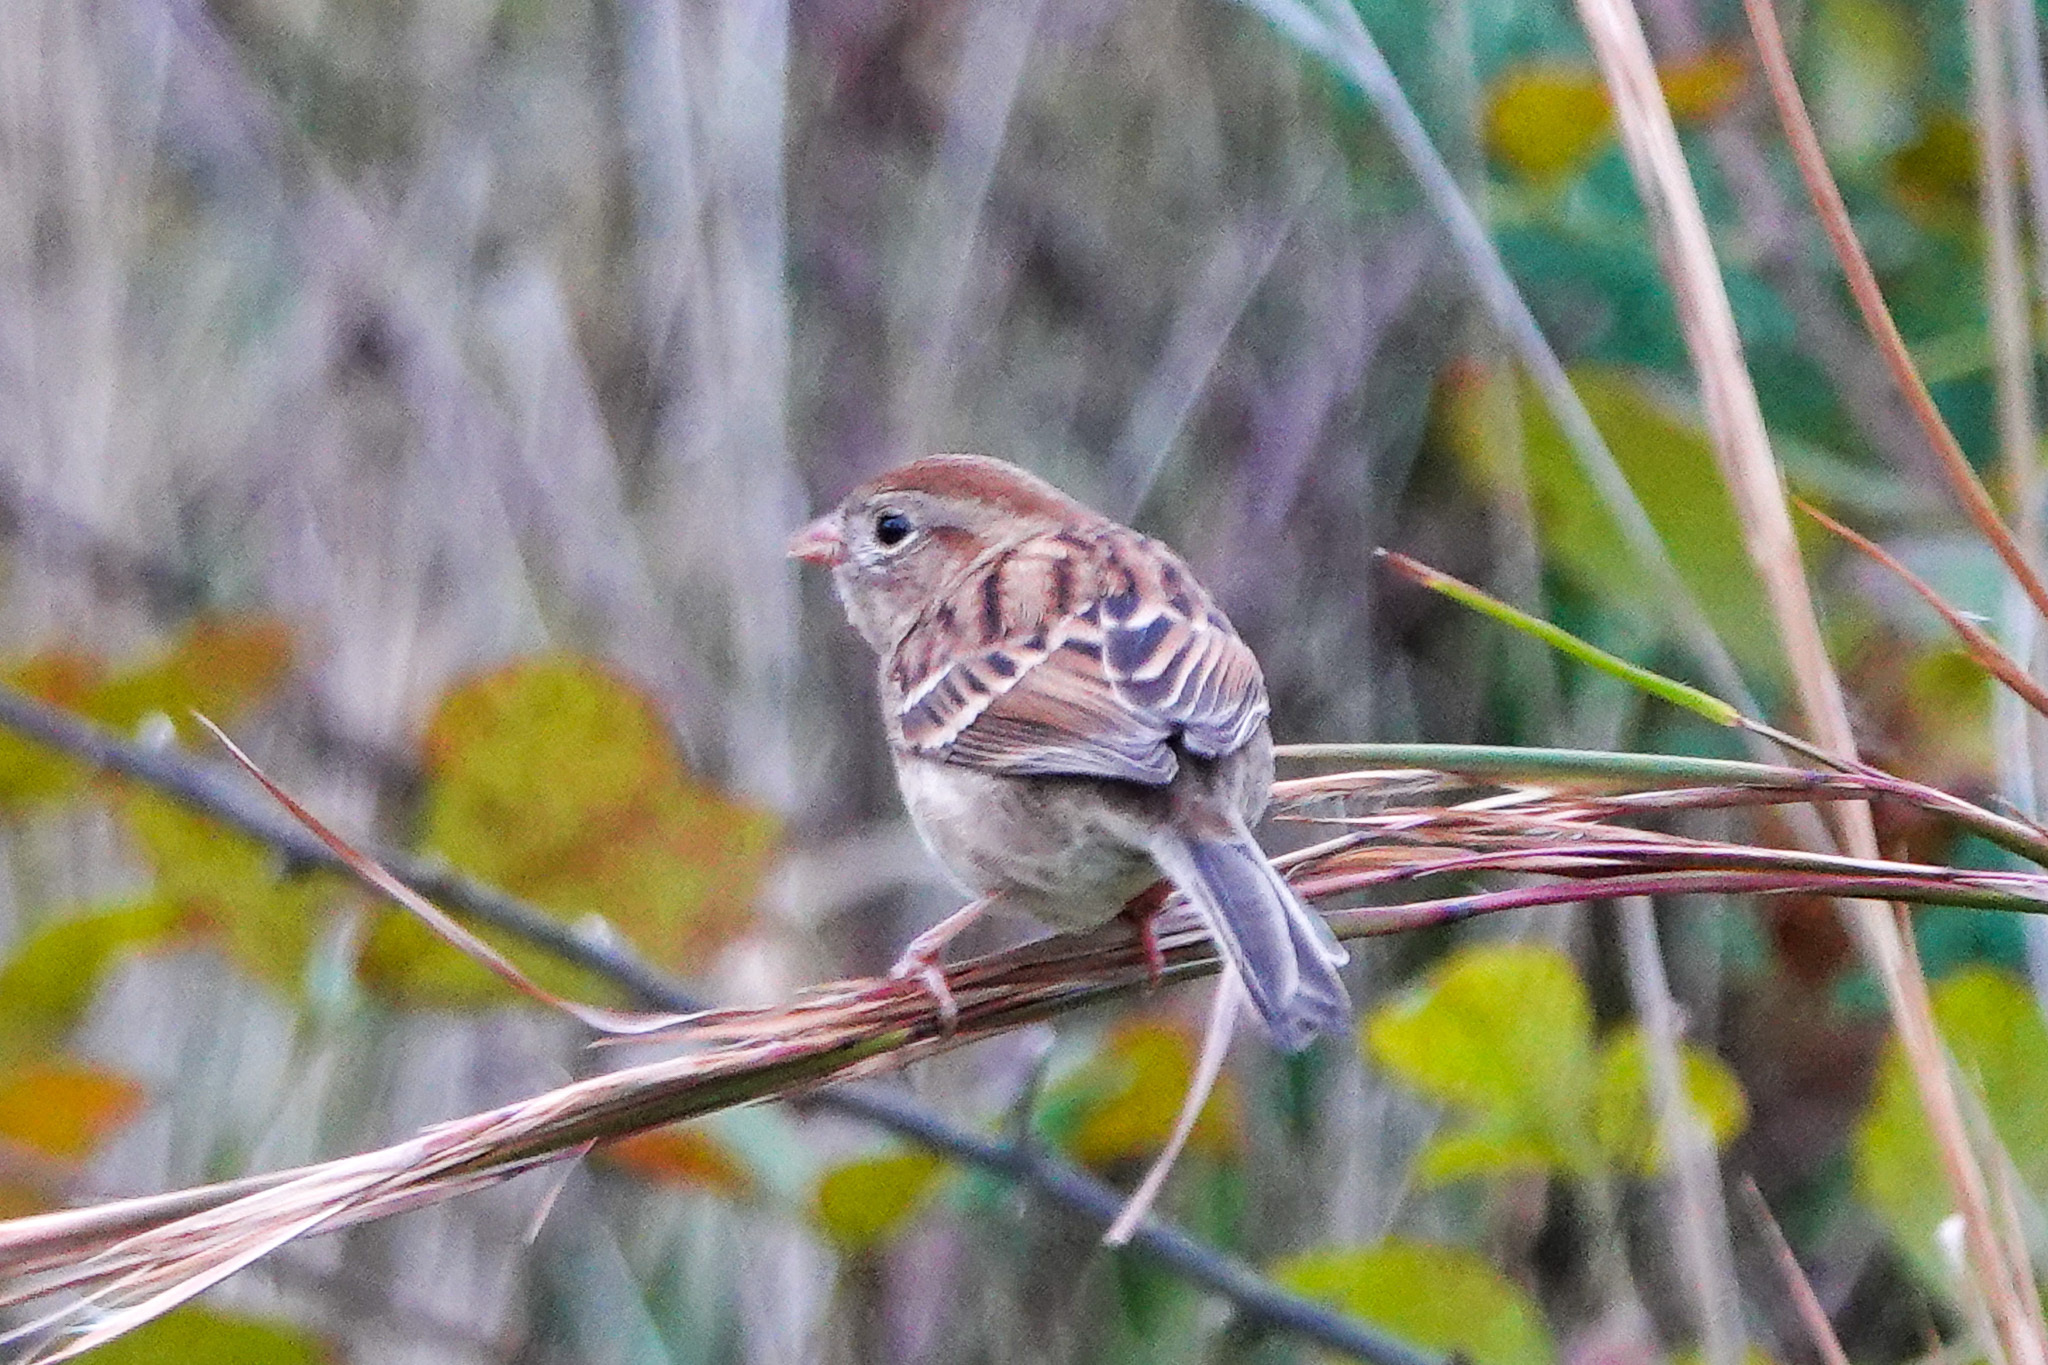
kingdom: Animalia
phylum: Chordata
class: Aves
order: Passeriformes
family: Passerellidae
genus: Spizella
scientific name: Spizella pusilla
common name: Field sparrow
